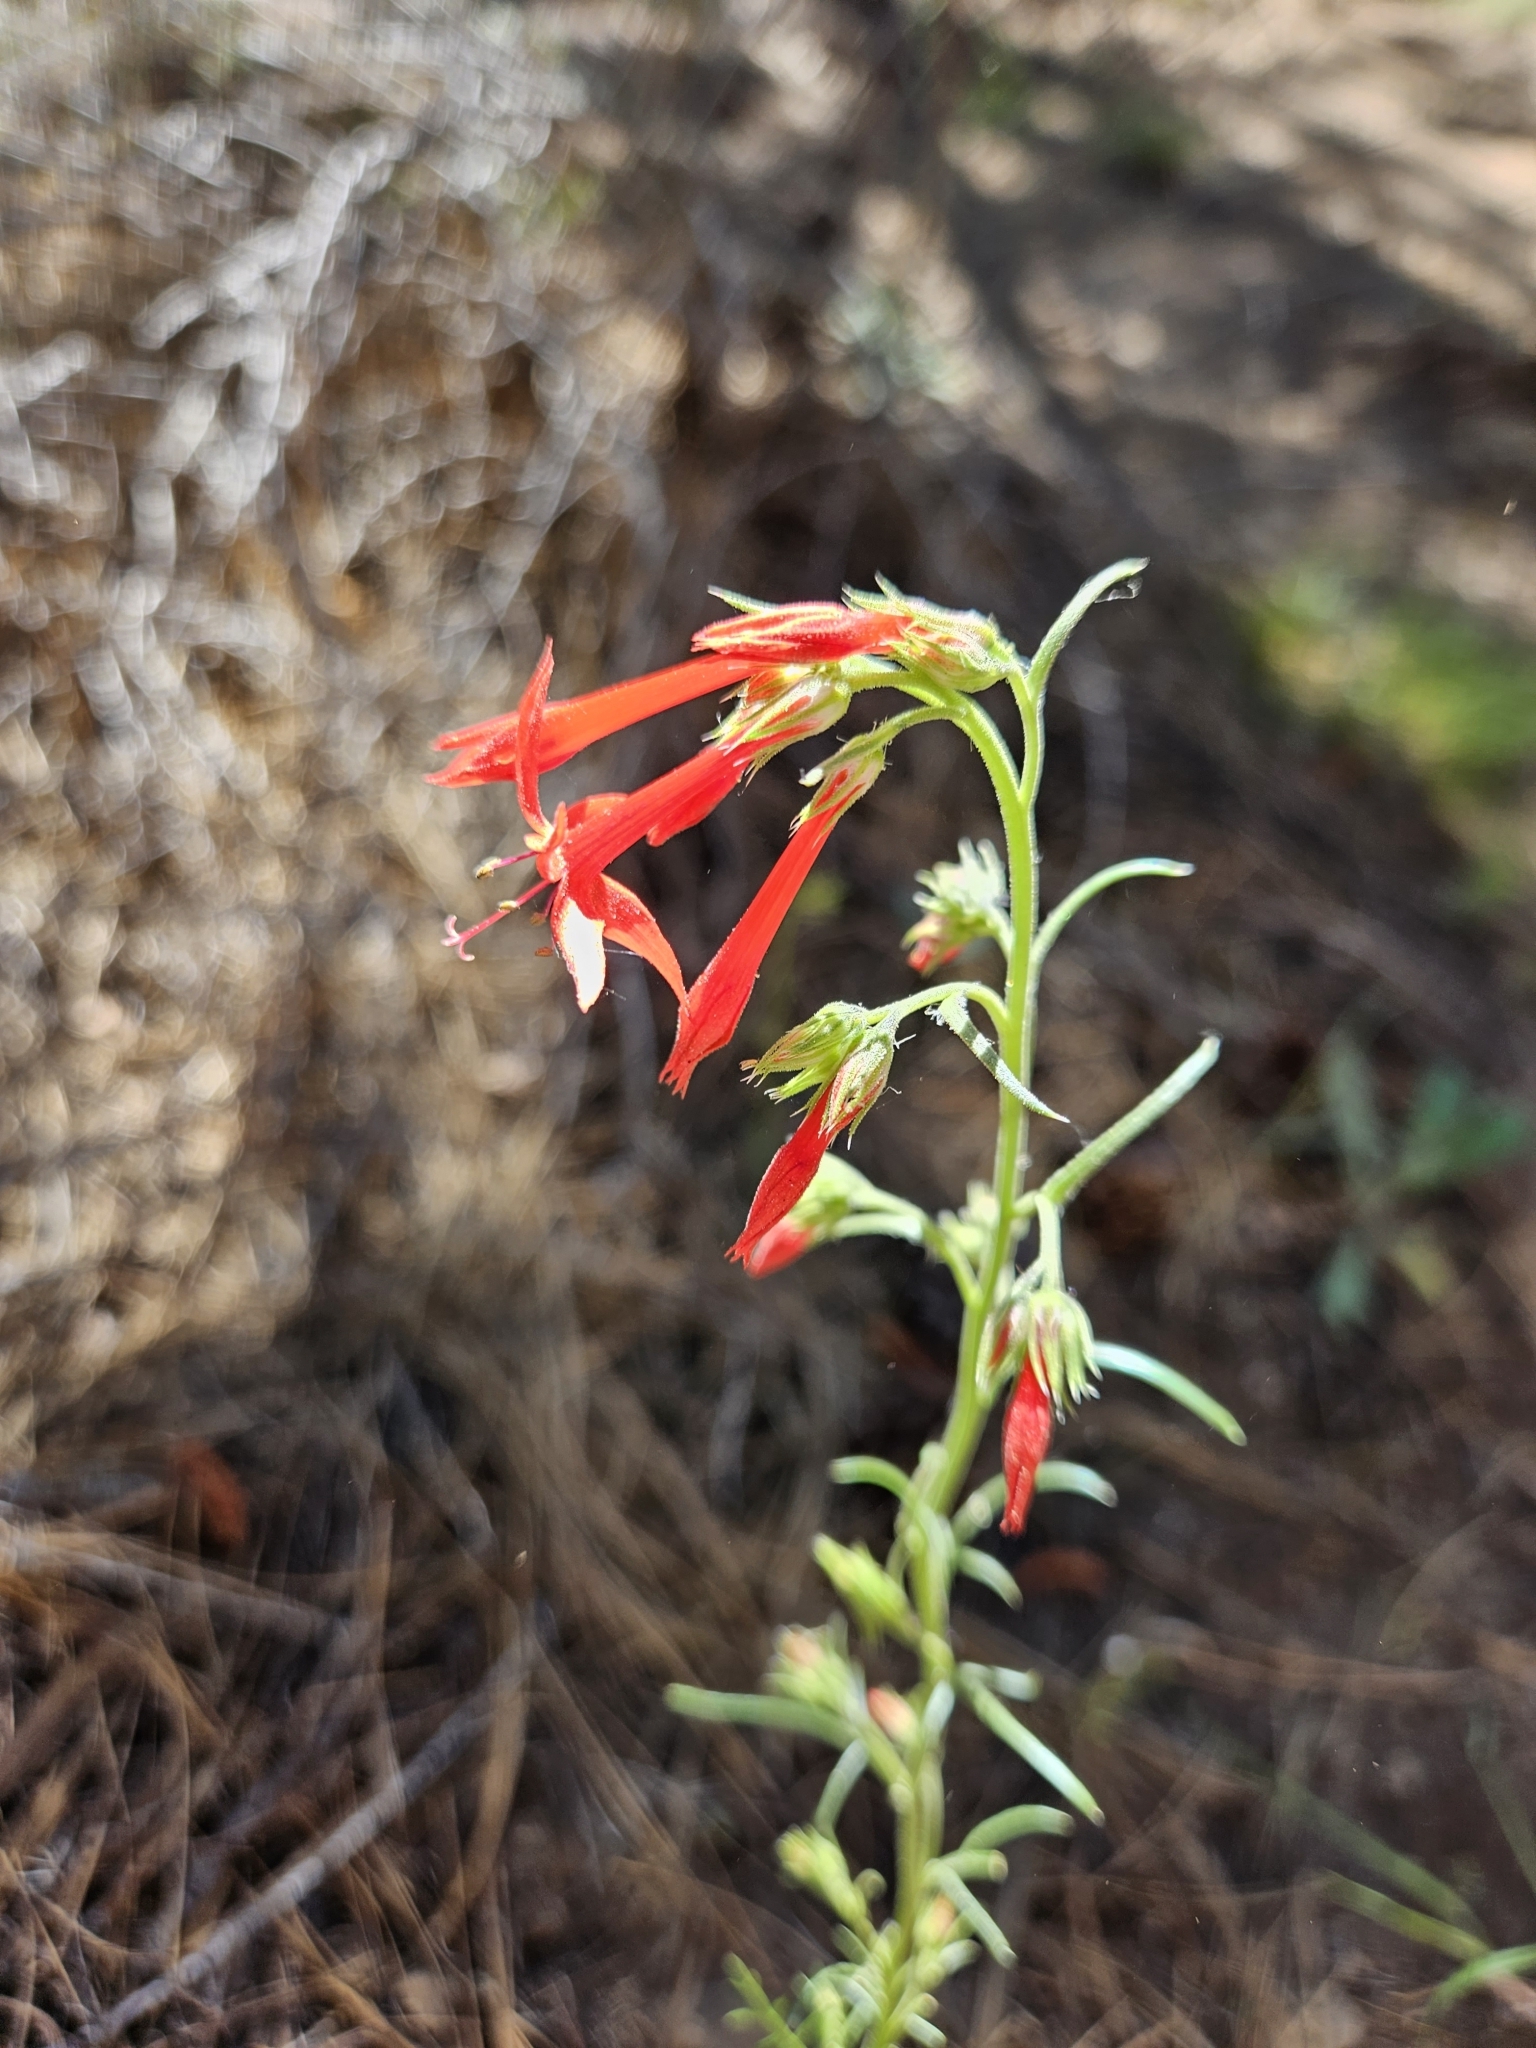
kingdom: Plantae
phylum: Tracheophyta
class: Magnoliopsida
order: Ericales
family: Polemoniaceae
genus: Ipomopsis
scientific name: Ipomopsis aggregata
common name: Scarlet gilia
